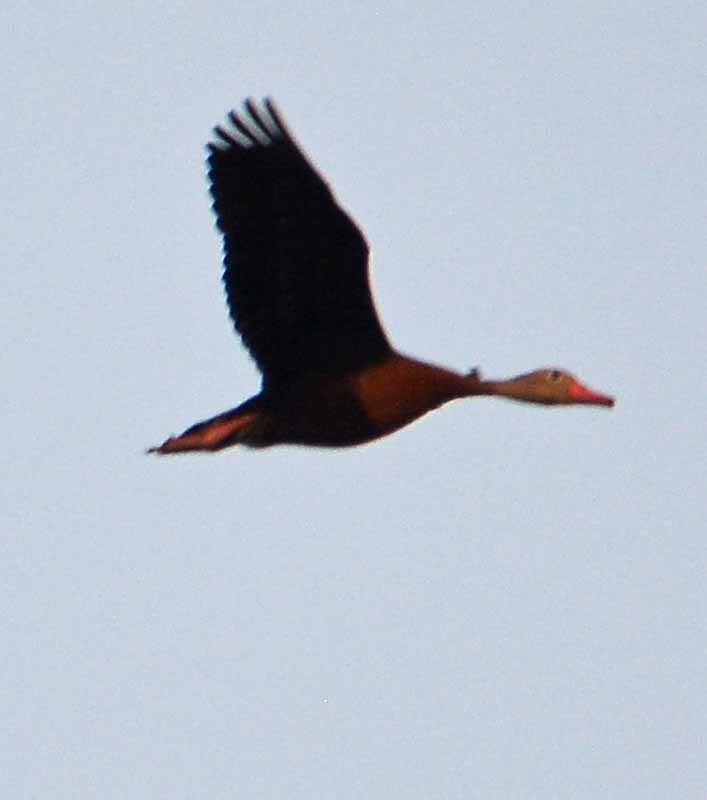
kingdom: Animalia
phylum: Chordata
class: Aves
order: Anseriformes
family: Anatidae
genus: Dendrocygna
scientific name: Dendrocygna autumnalis
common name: Black-bellied whistling duck
